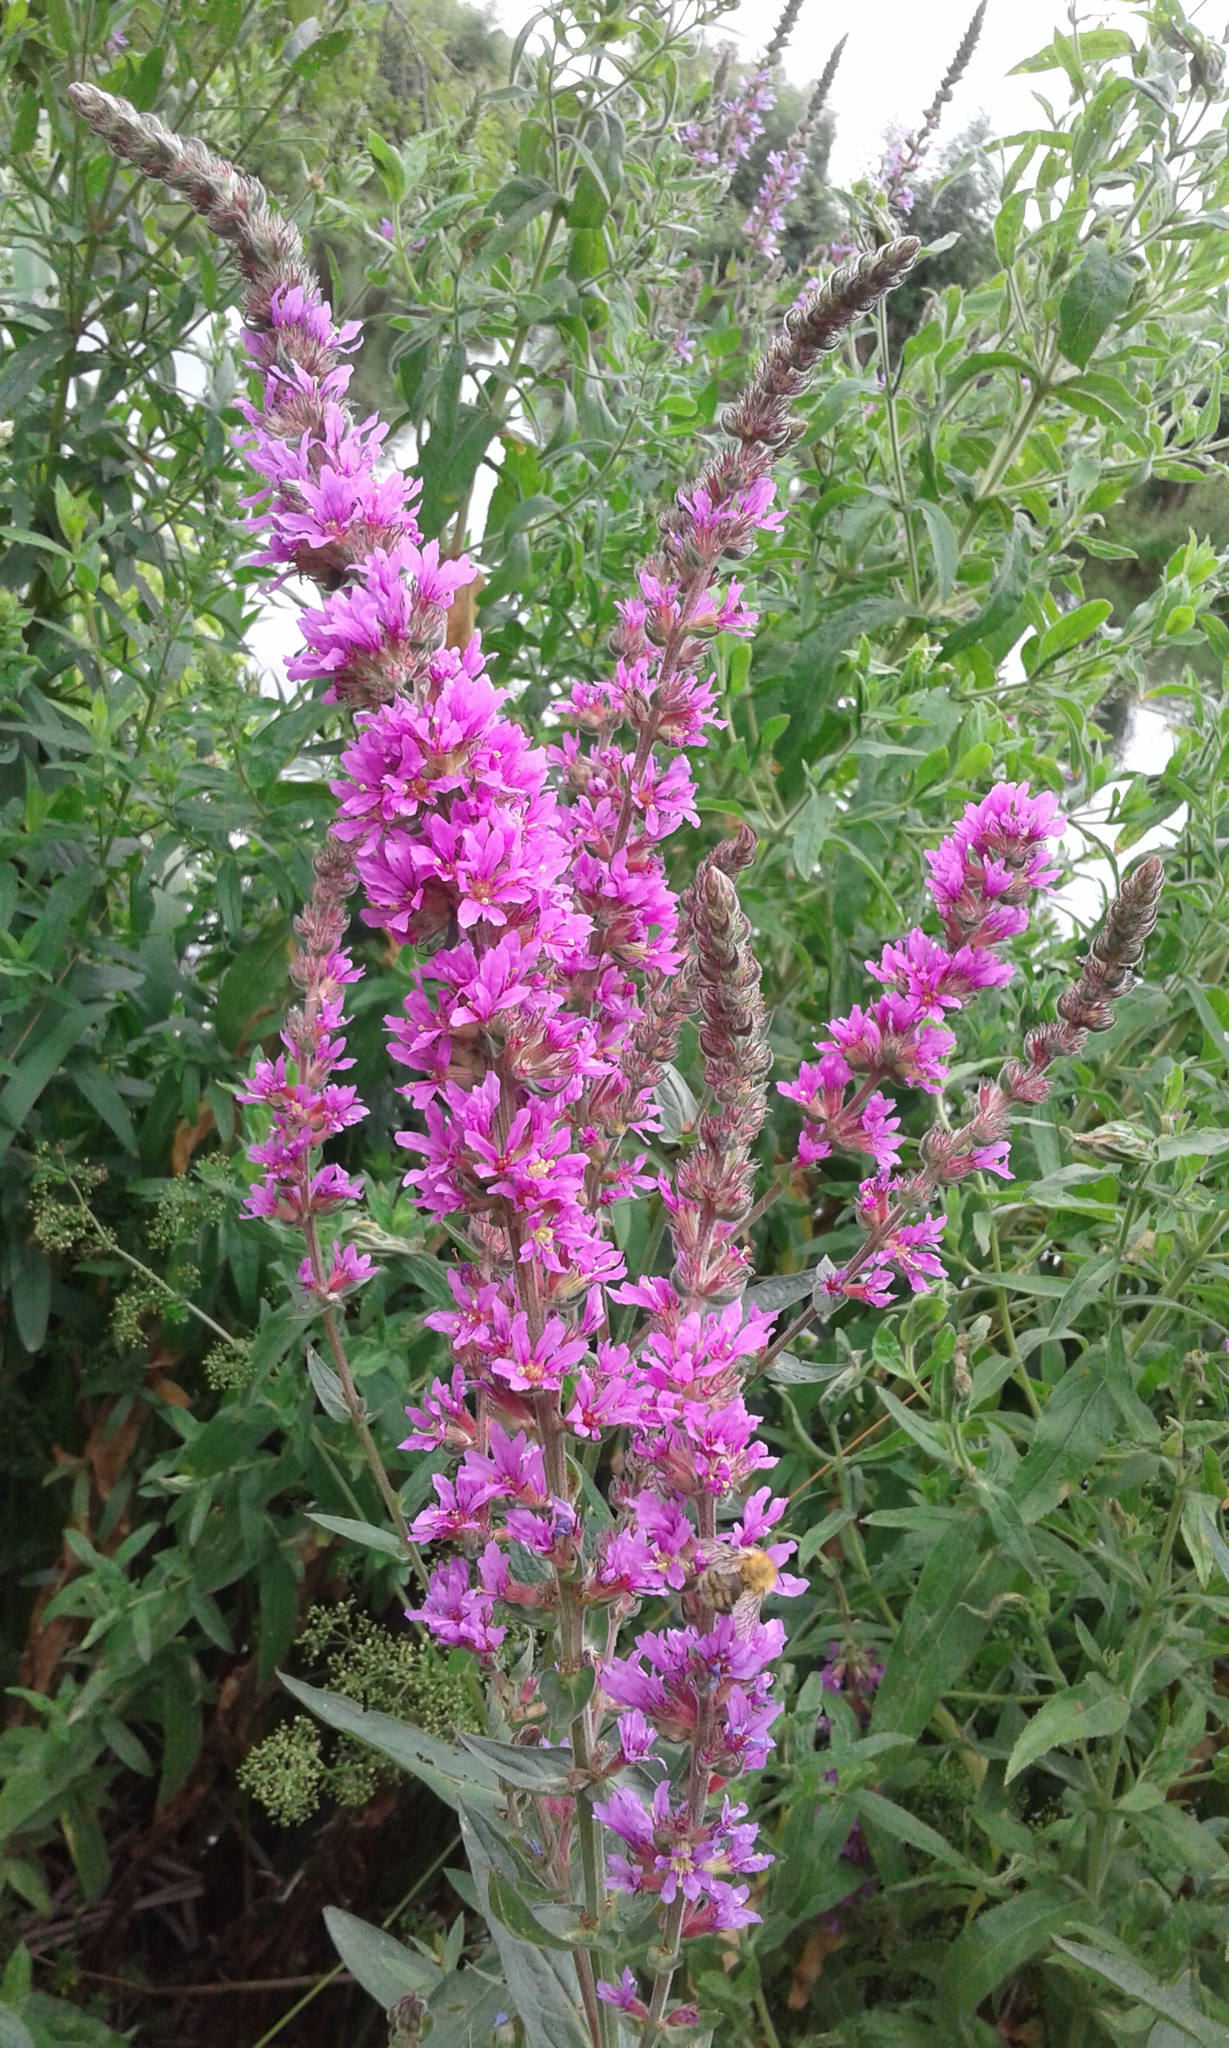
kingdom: Plantae
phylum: Tracheophyta
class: Magnoliopsida
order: Myrtales
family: Lythraceae
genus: Lythrum
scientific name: Lythrum salicaria
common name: Purple loosestrife
